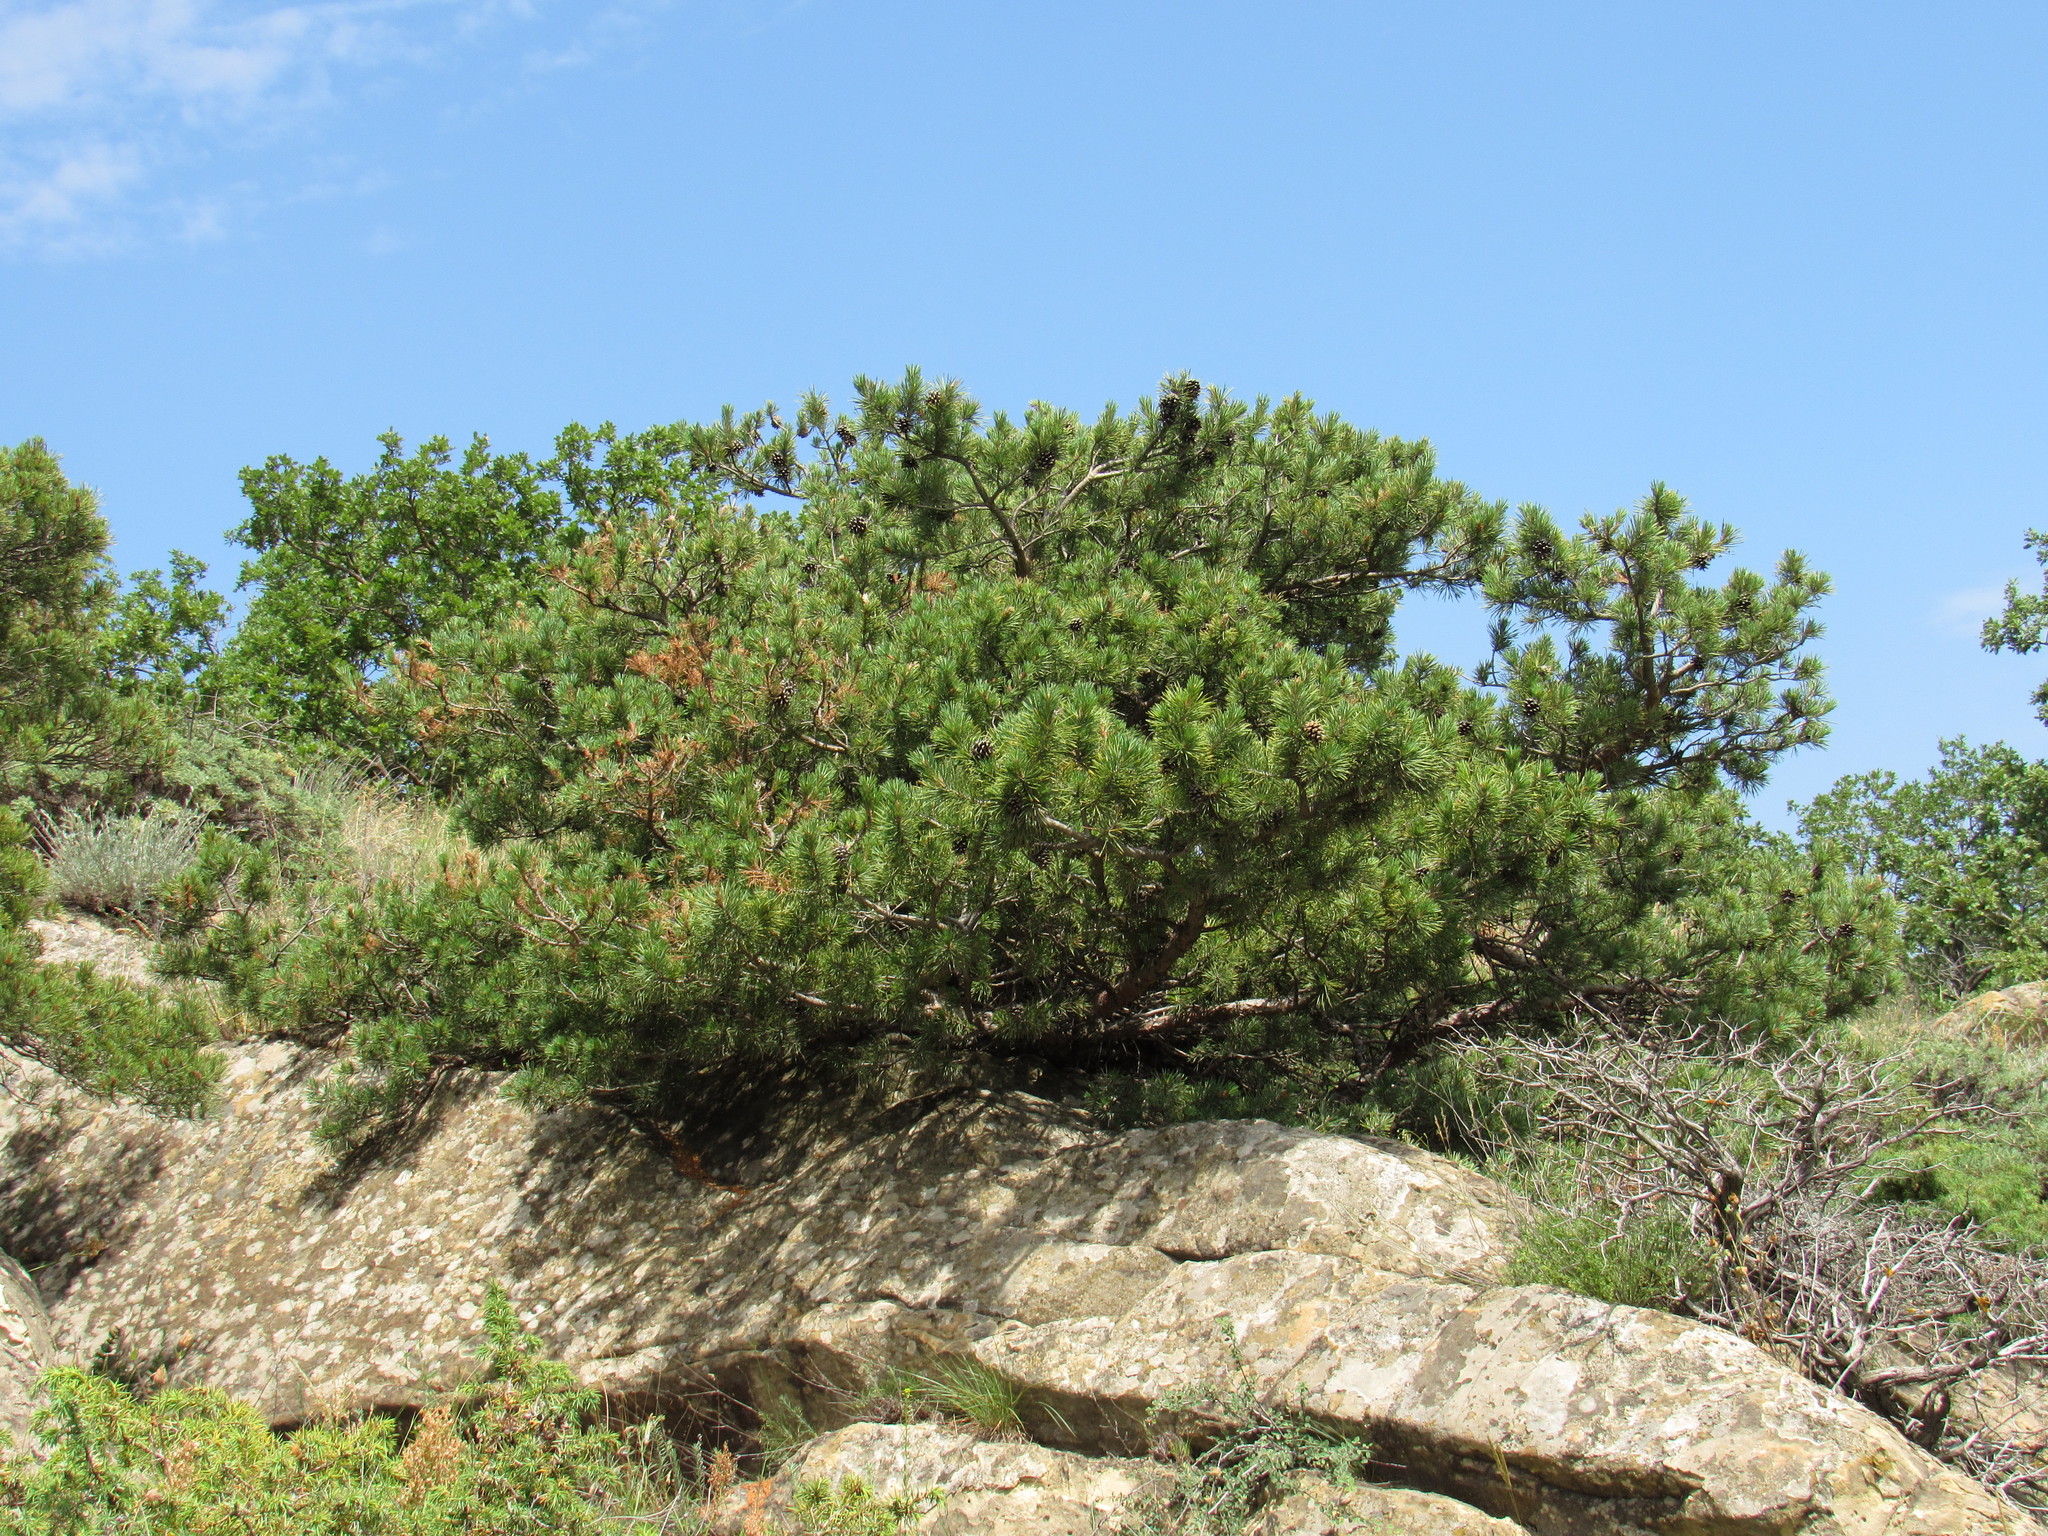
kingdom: Plantae
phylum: Tracheophyta
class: Pinopsida
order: Pinales
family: Pinaceae
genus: Pinus
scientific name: Pinus sylvestris
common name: Scots pine
